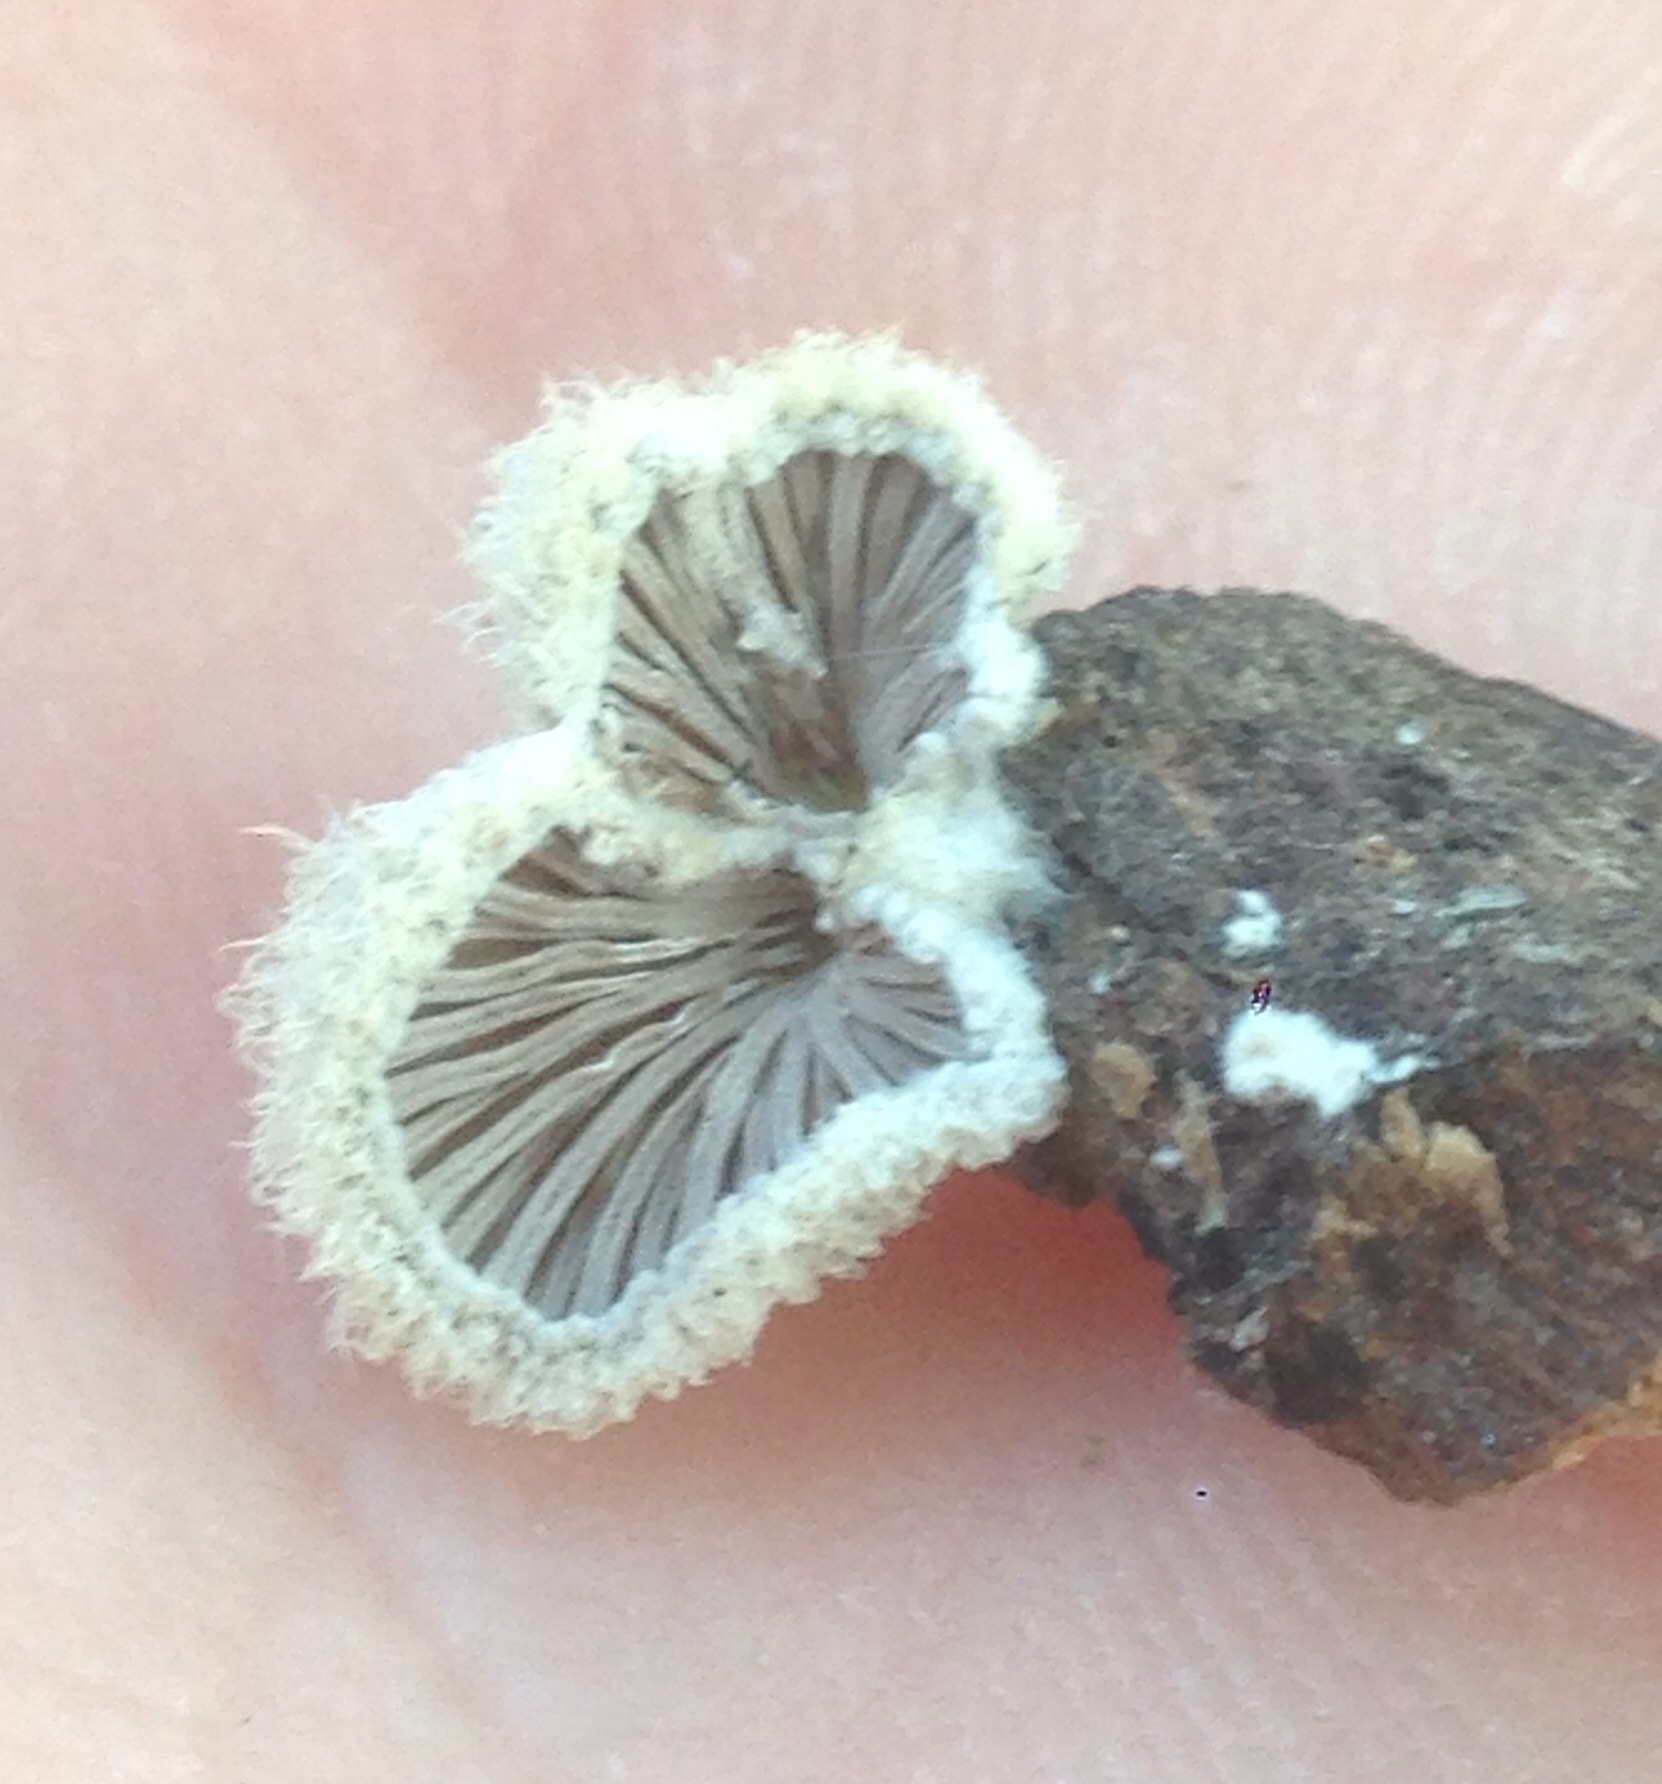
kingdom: Fungi
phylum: Basidiomycota
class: Agaricomycetes
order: Agaricales
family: Schizophyllaceae
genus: Schizophyllum
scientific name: Schizophyllum commune
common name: Common porecrust
